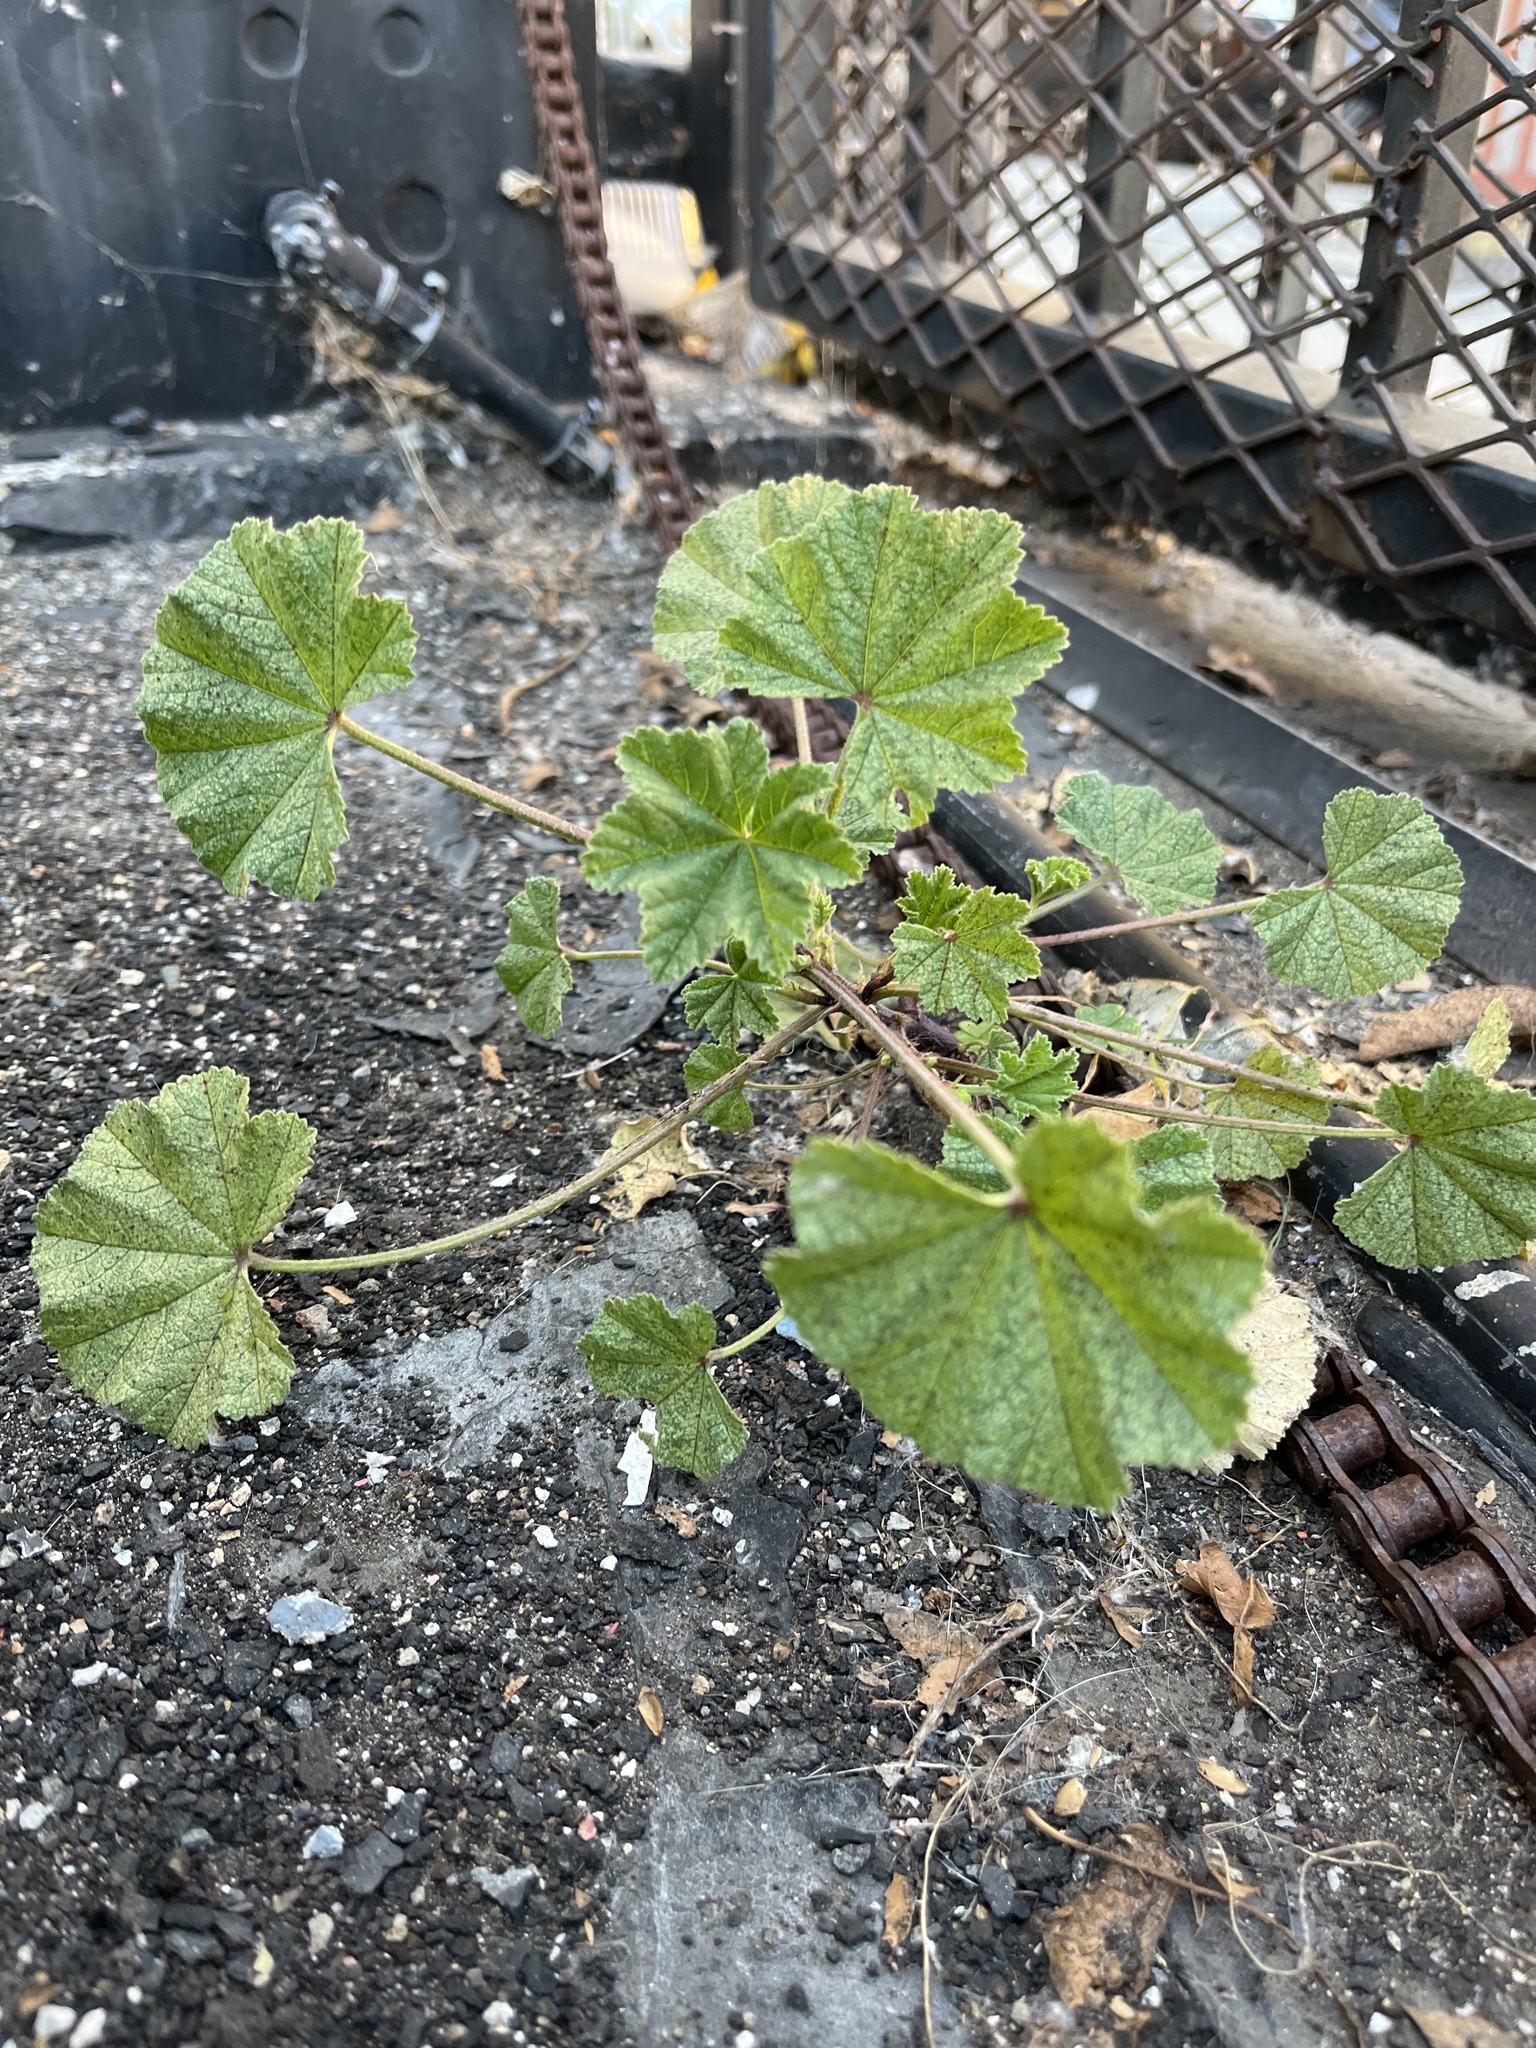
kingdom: Plantae
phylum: Tracheophyta
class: Magnoliopsida
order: Malvales
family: Malvaceae
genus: Malva
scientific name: Malva
